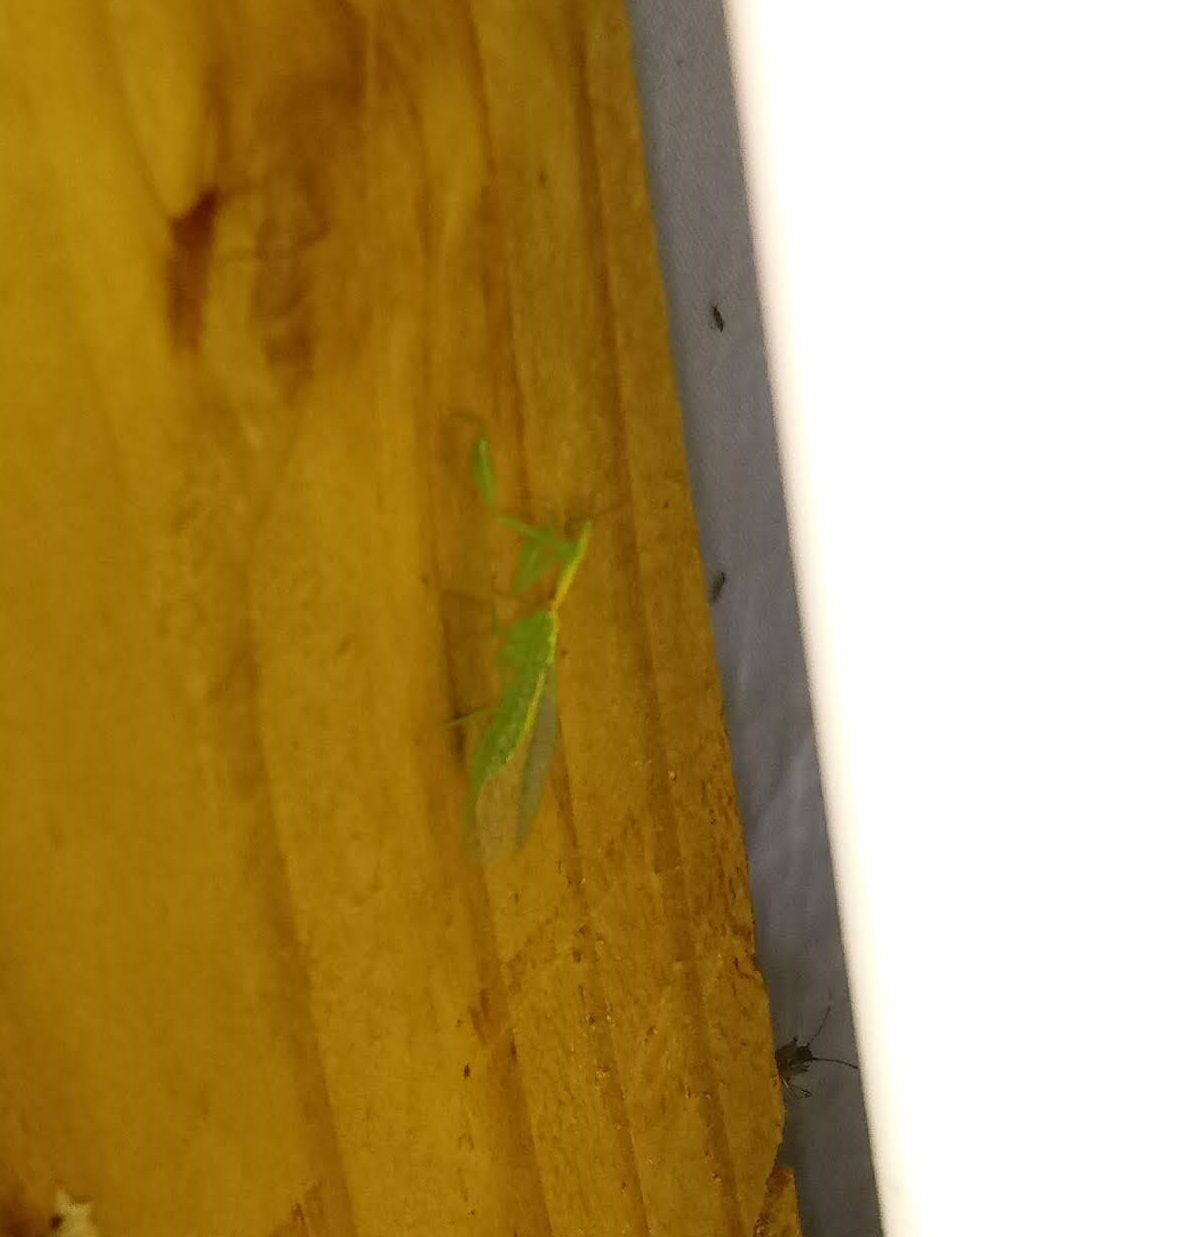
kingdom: Animalia
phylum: Arthropoda
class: Insecta
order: Neuroptera
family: Mantispidae
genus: Zeugomantispa
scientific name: Zeugomantispa minuta
